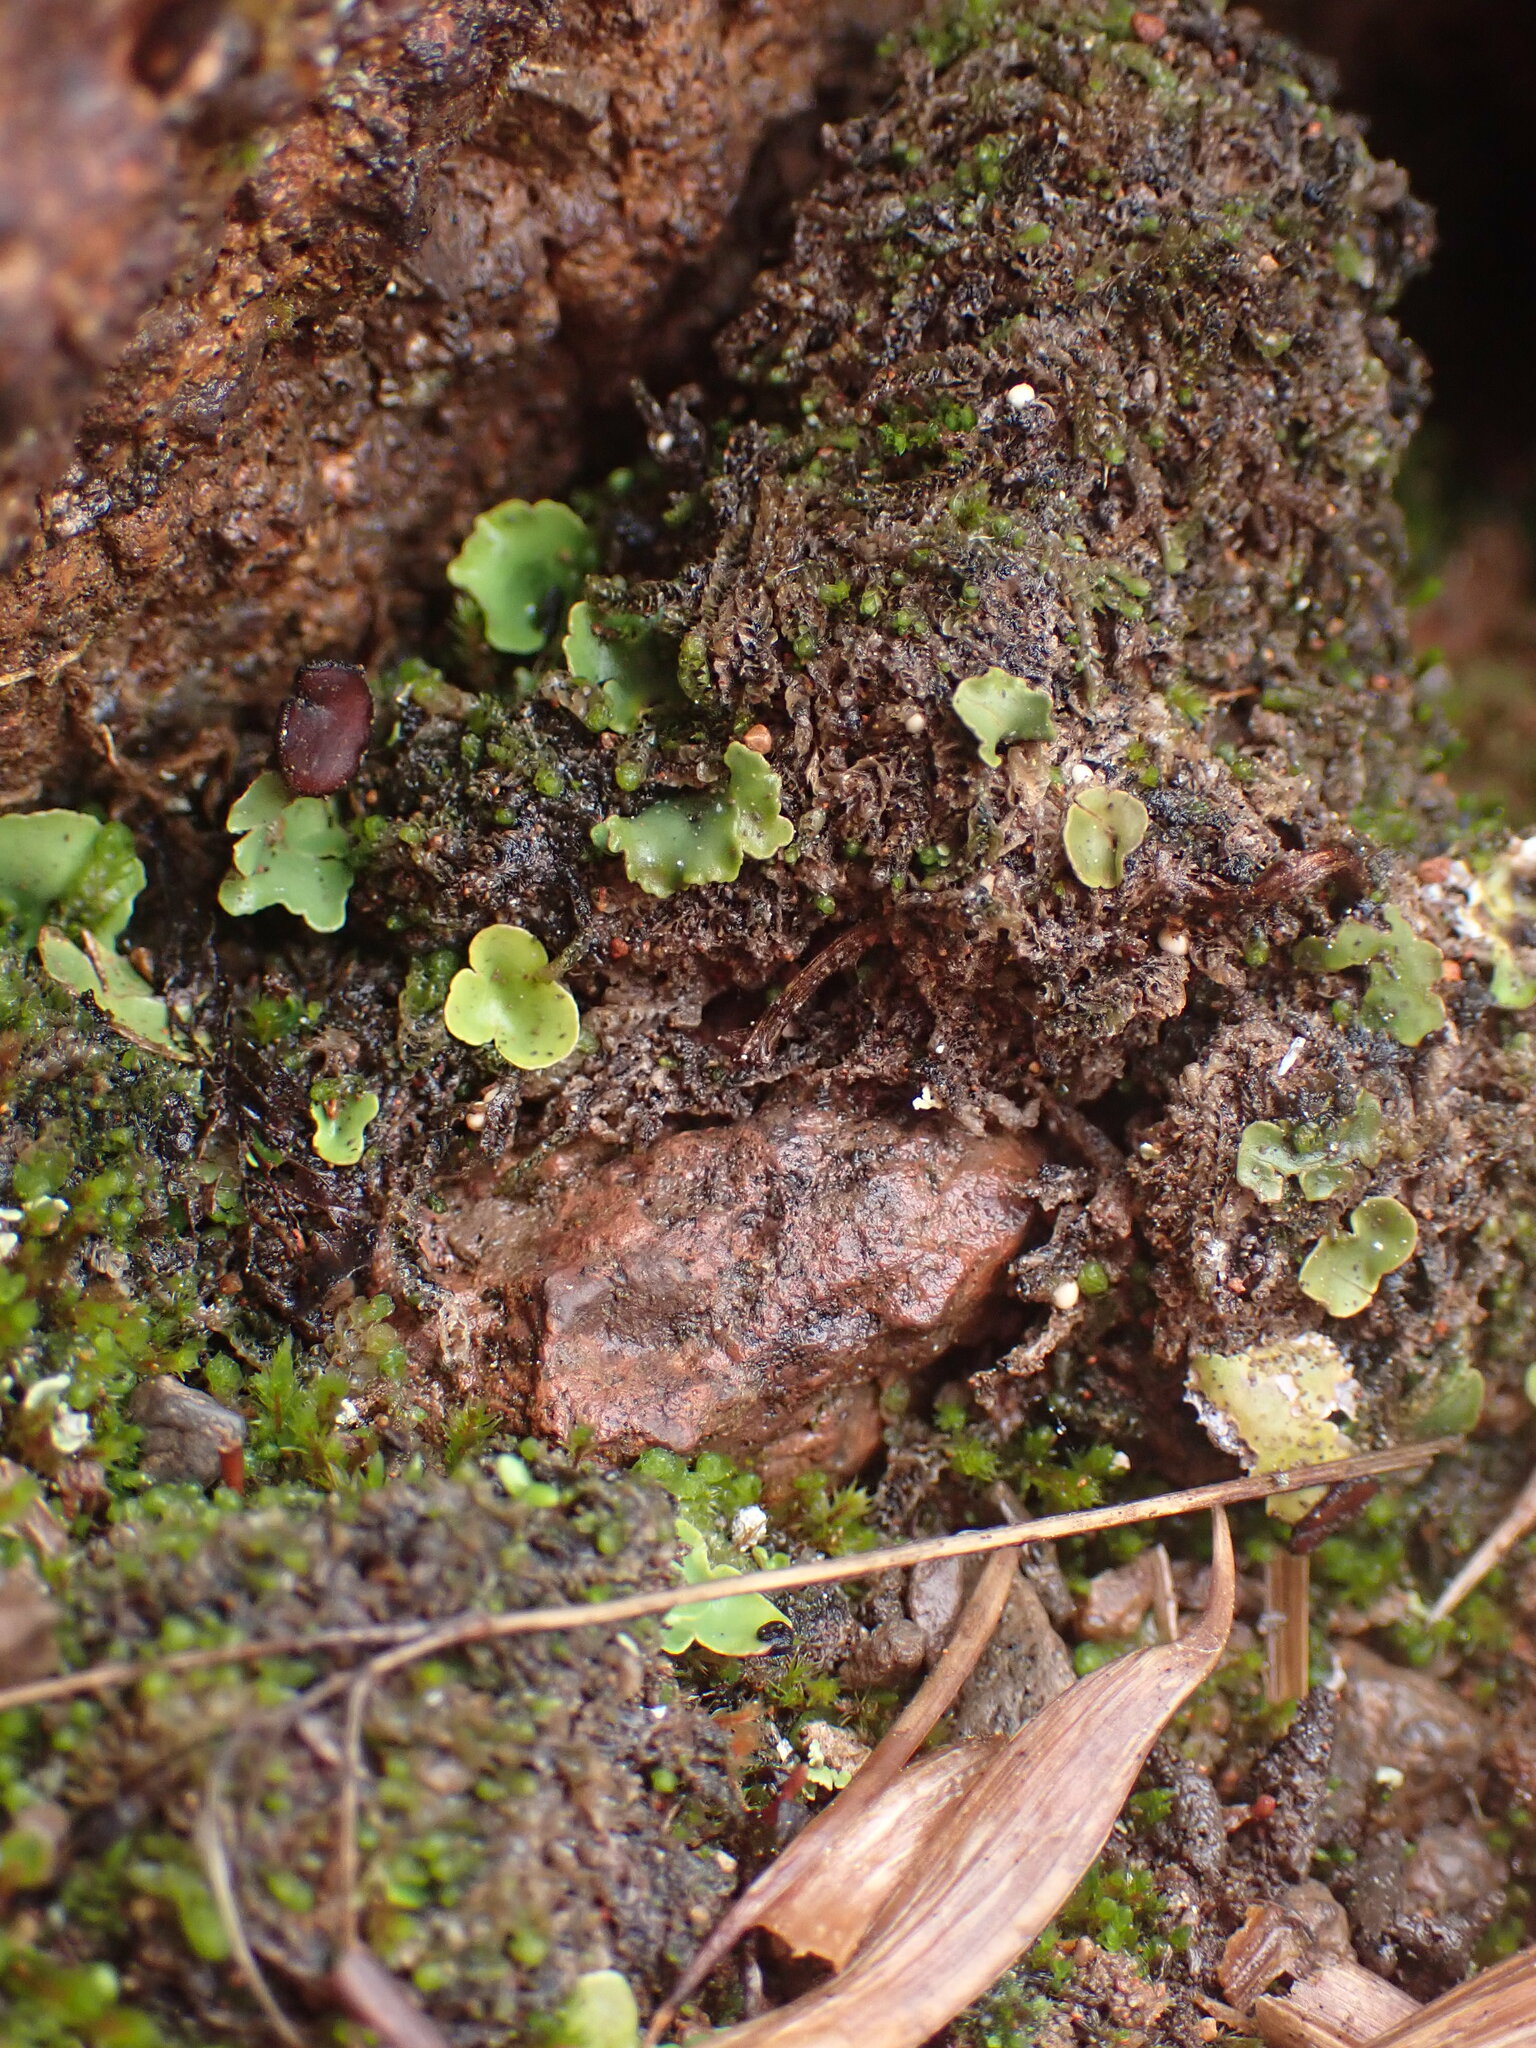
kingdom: Fungi
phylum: Ascomycota
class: Lecanoromycetes
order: Peltigerales
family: Peltigeraceae
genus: Peltigera
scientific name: Peltigera venosa
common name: Pixie gowns lichen
